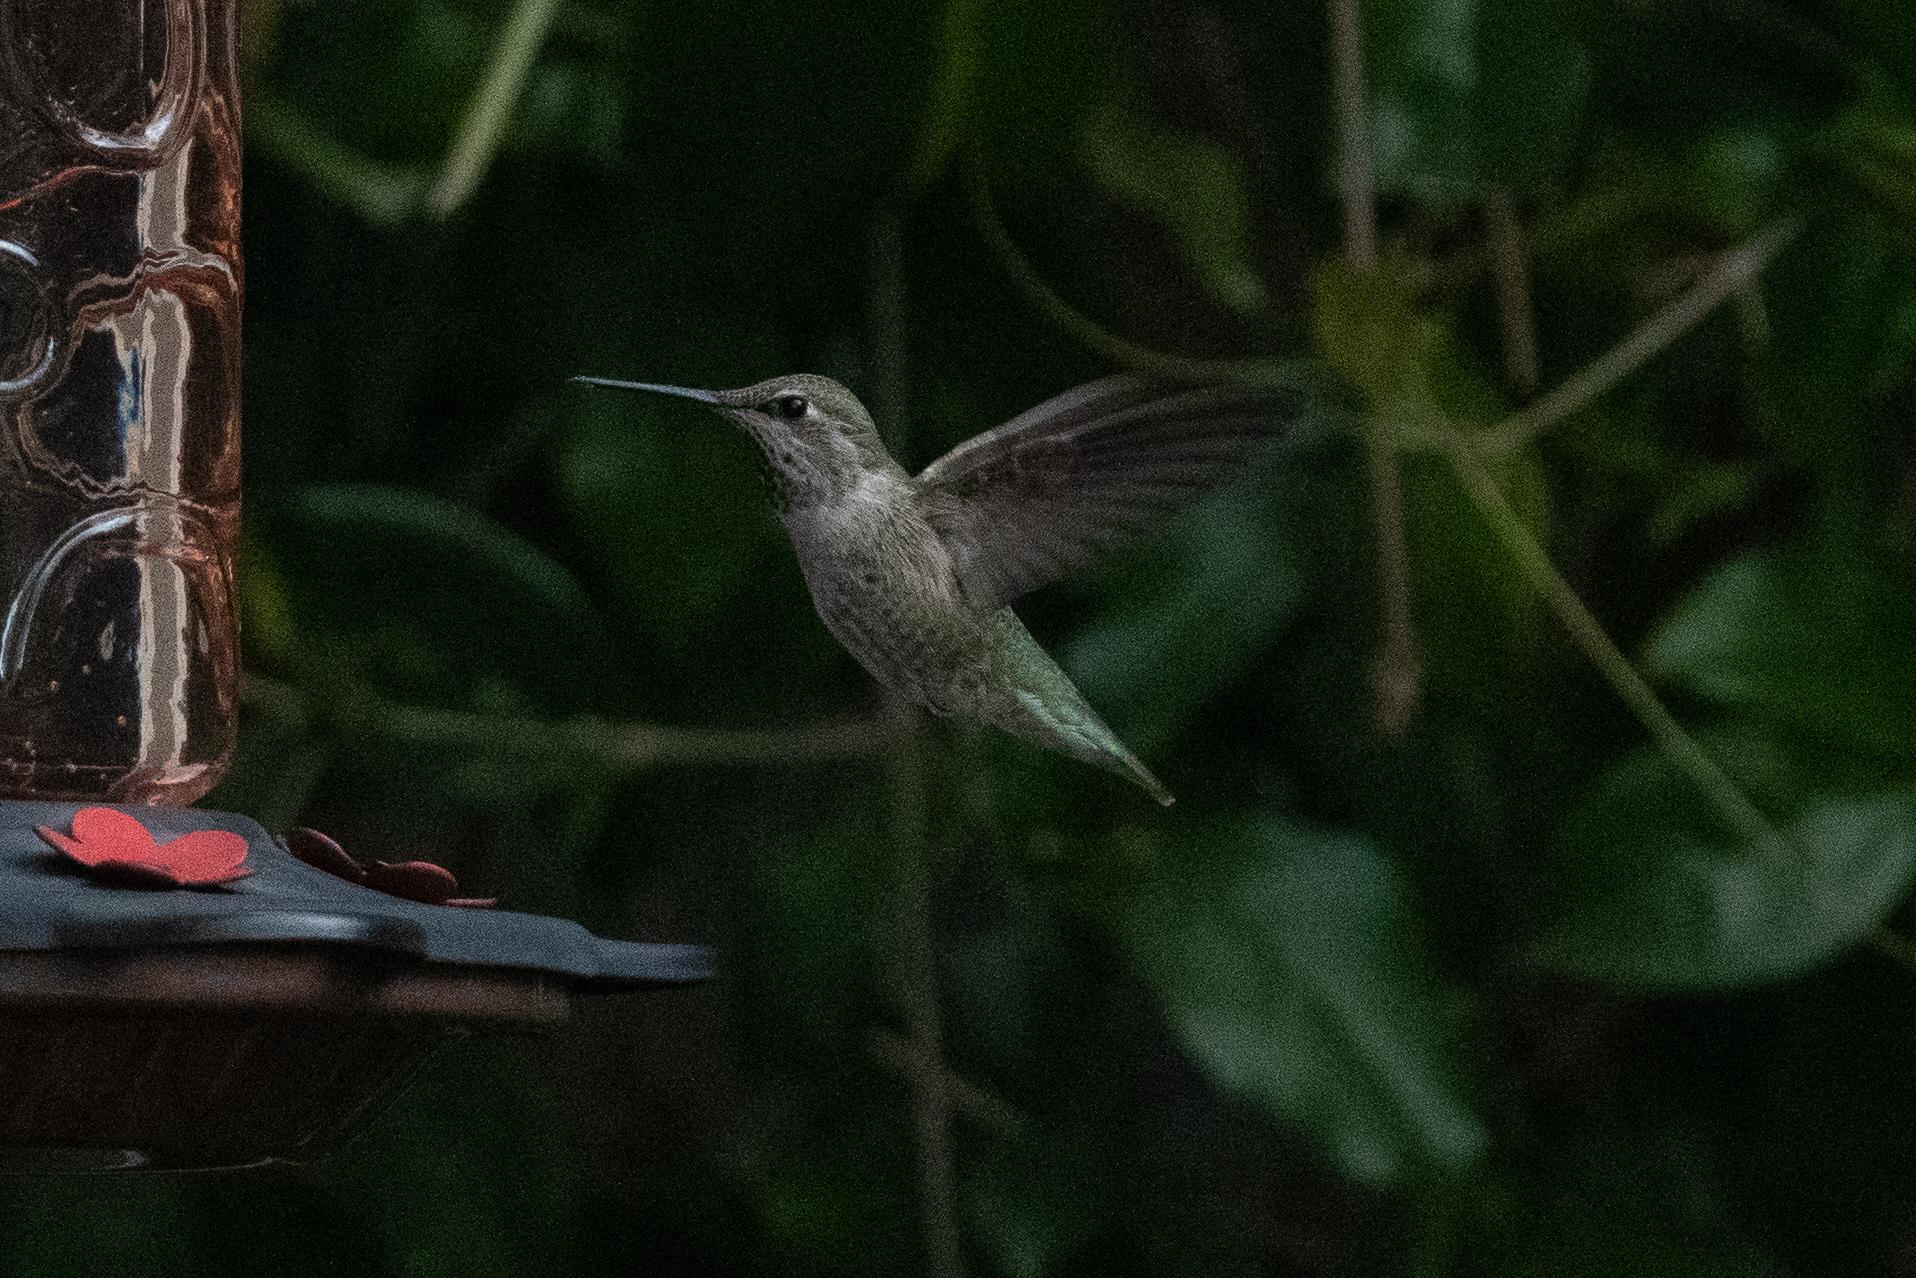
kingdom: Animalia
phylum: Chordata
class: Aves
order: Apodiformes
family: Trochilidae
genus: Calypte
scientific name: Calypte anna
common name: Anna's hummingbird
